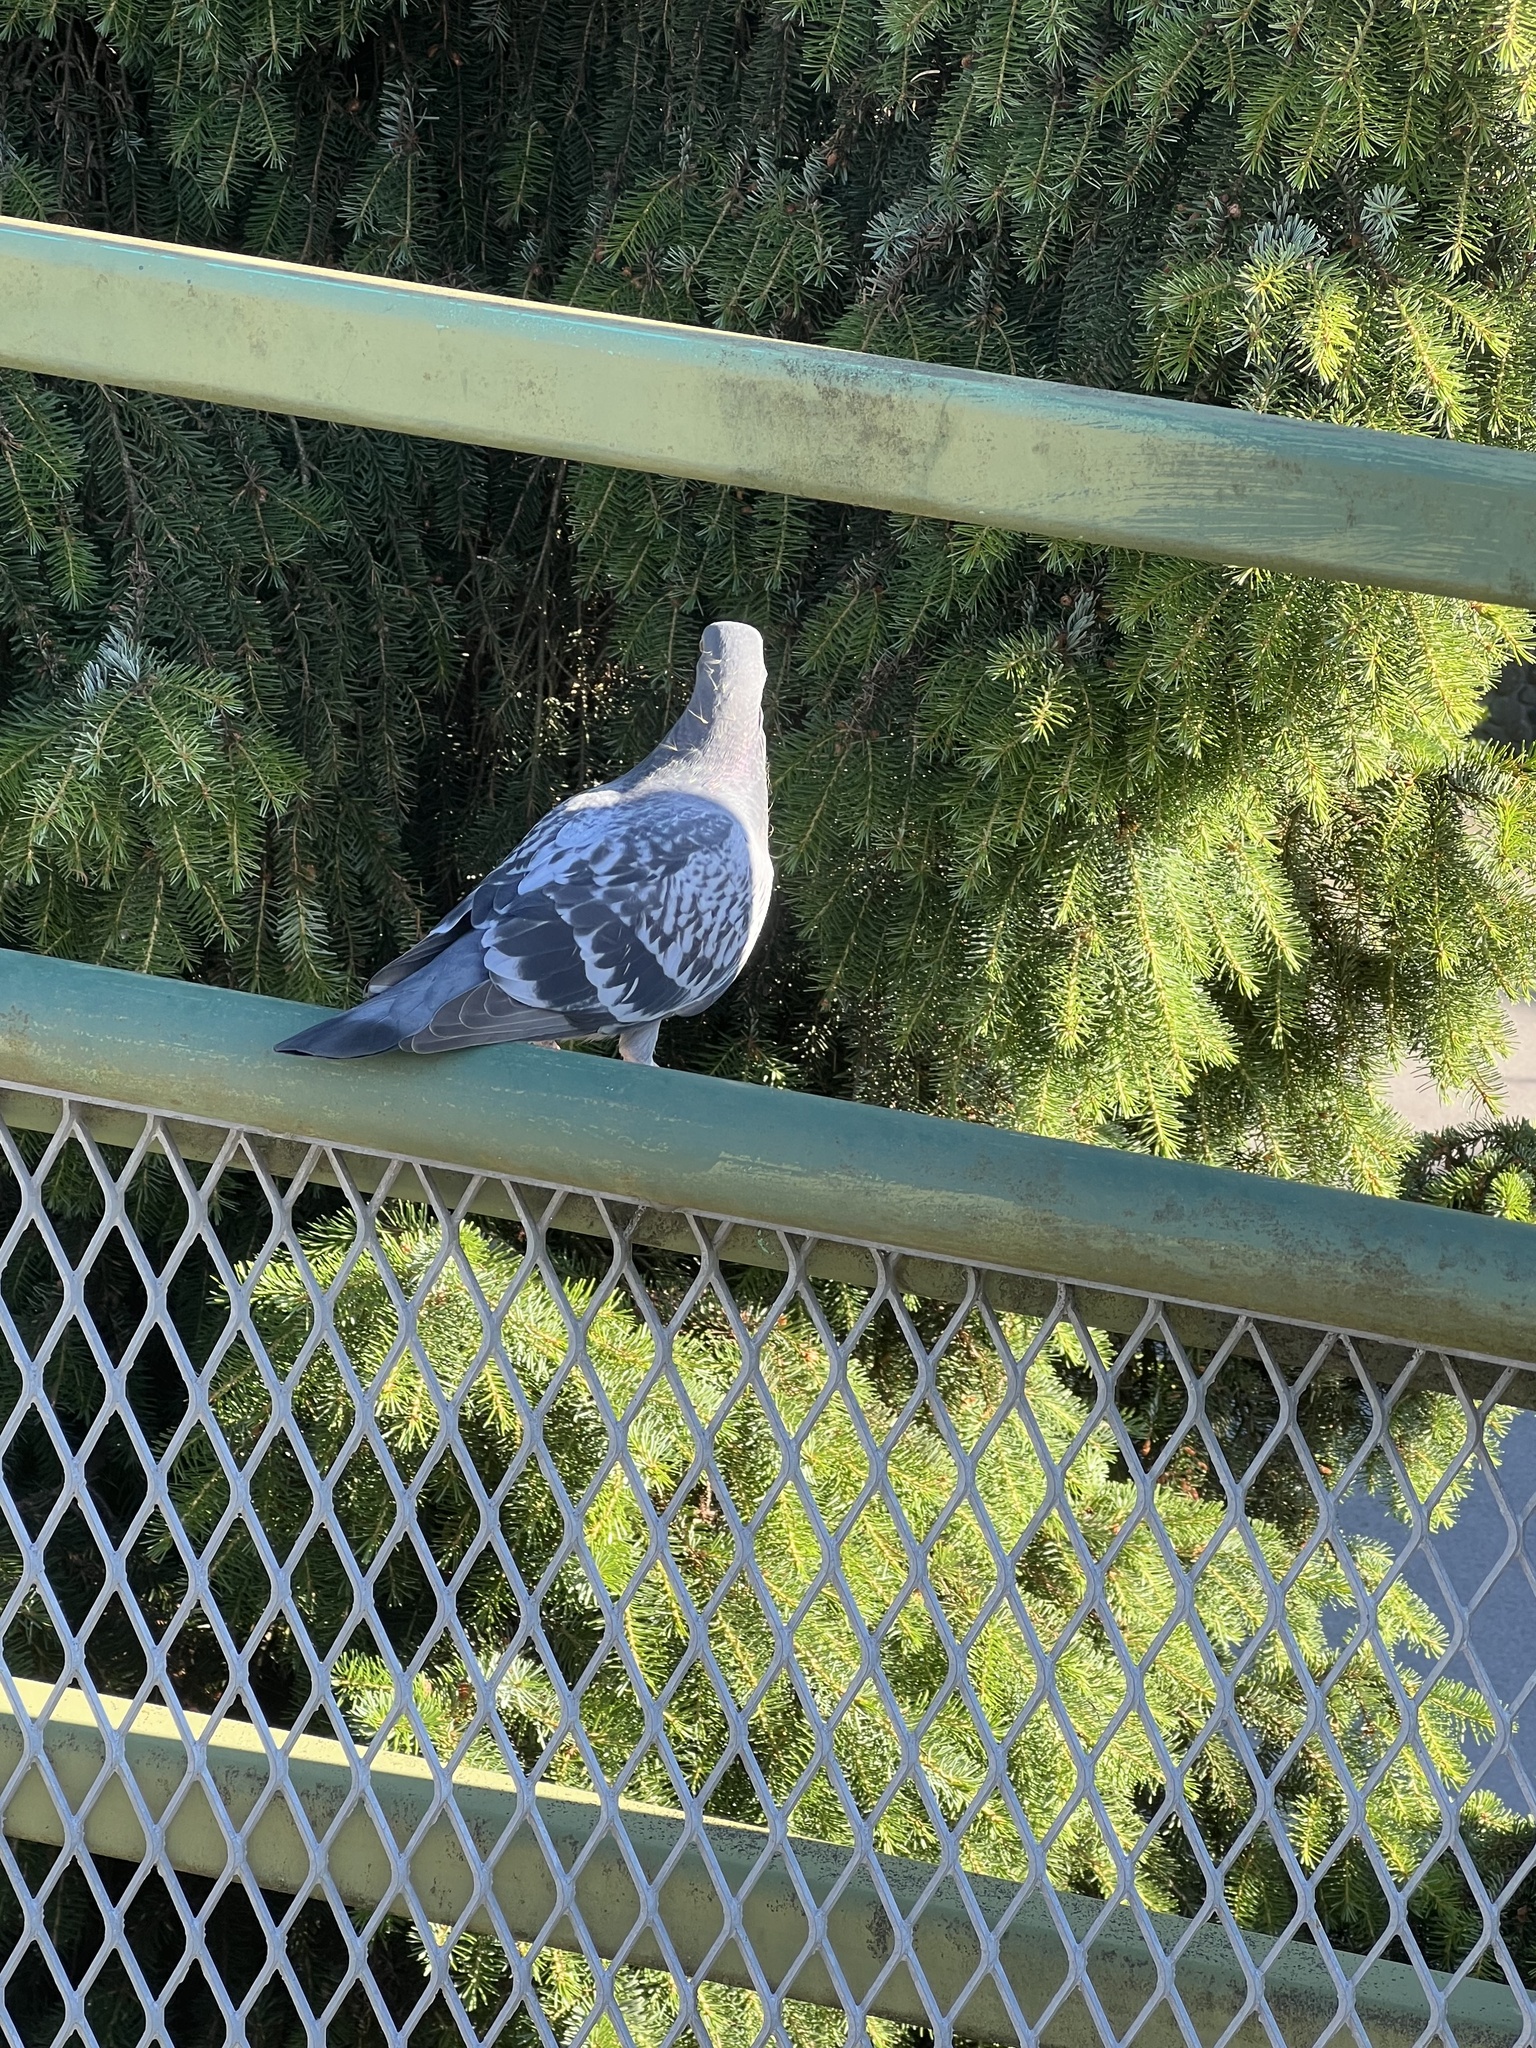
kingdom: Animalia
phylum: Chordata
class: Aves
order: Columbiformes
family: Columbidae
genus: Columba
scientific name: Columba livia
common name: Rock pigeon
